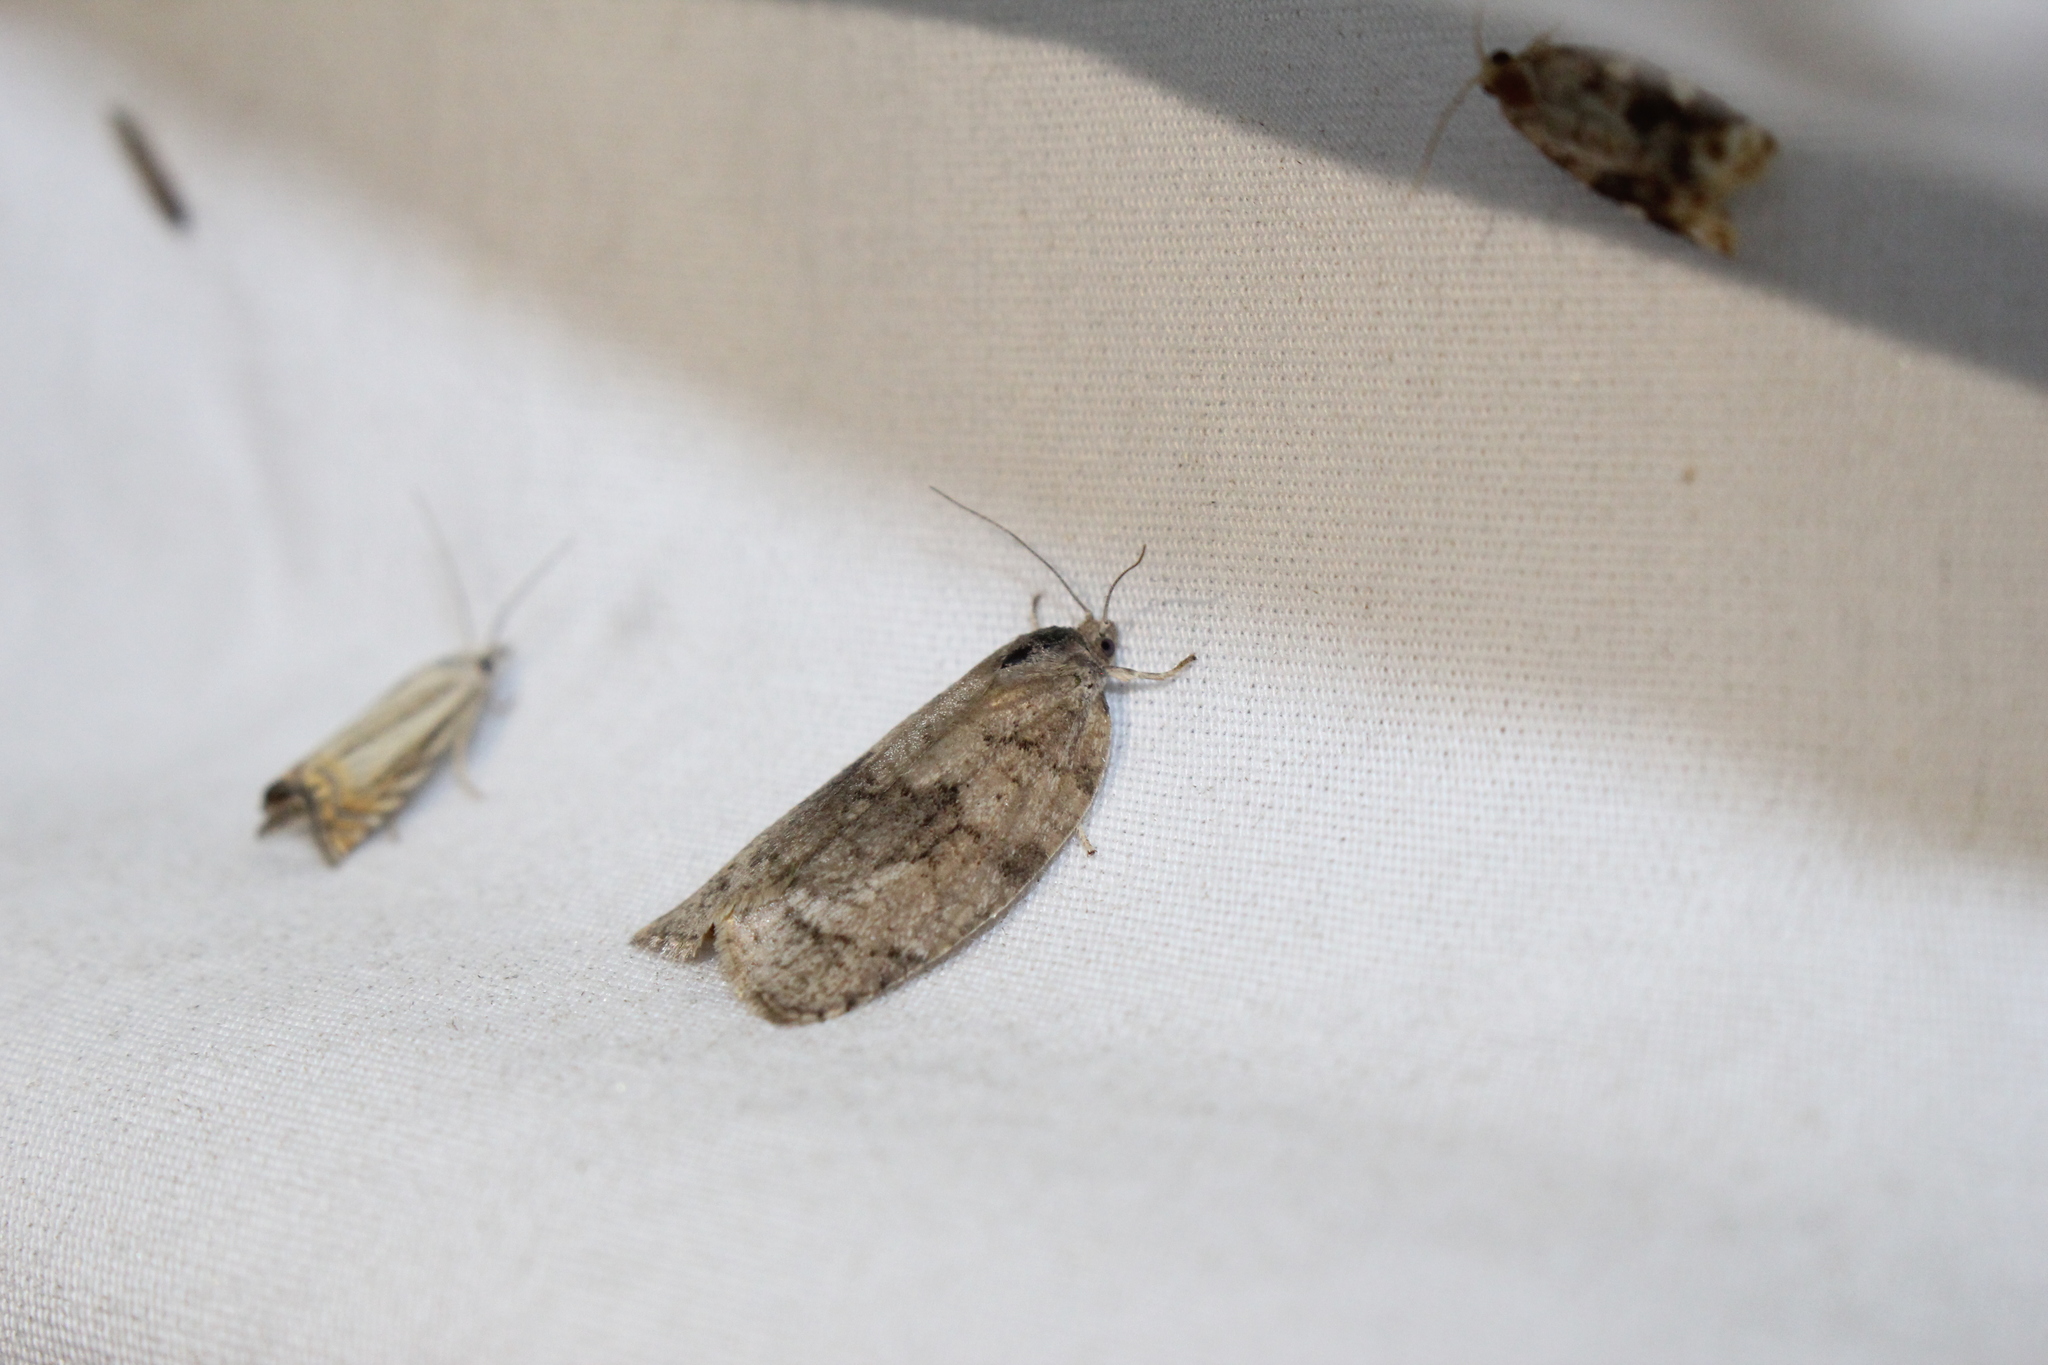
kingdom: Animalia
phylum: Arthropoda
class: Insecta
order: Lepidoptera
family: Tortricidae
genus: Choristoneura
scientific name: Choristoneura conflictana
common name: Large aspen tortrix
